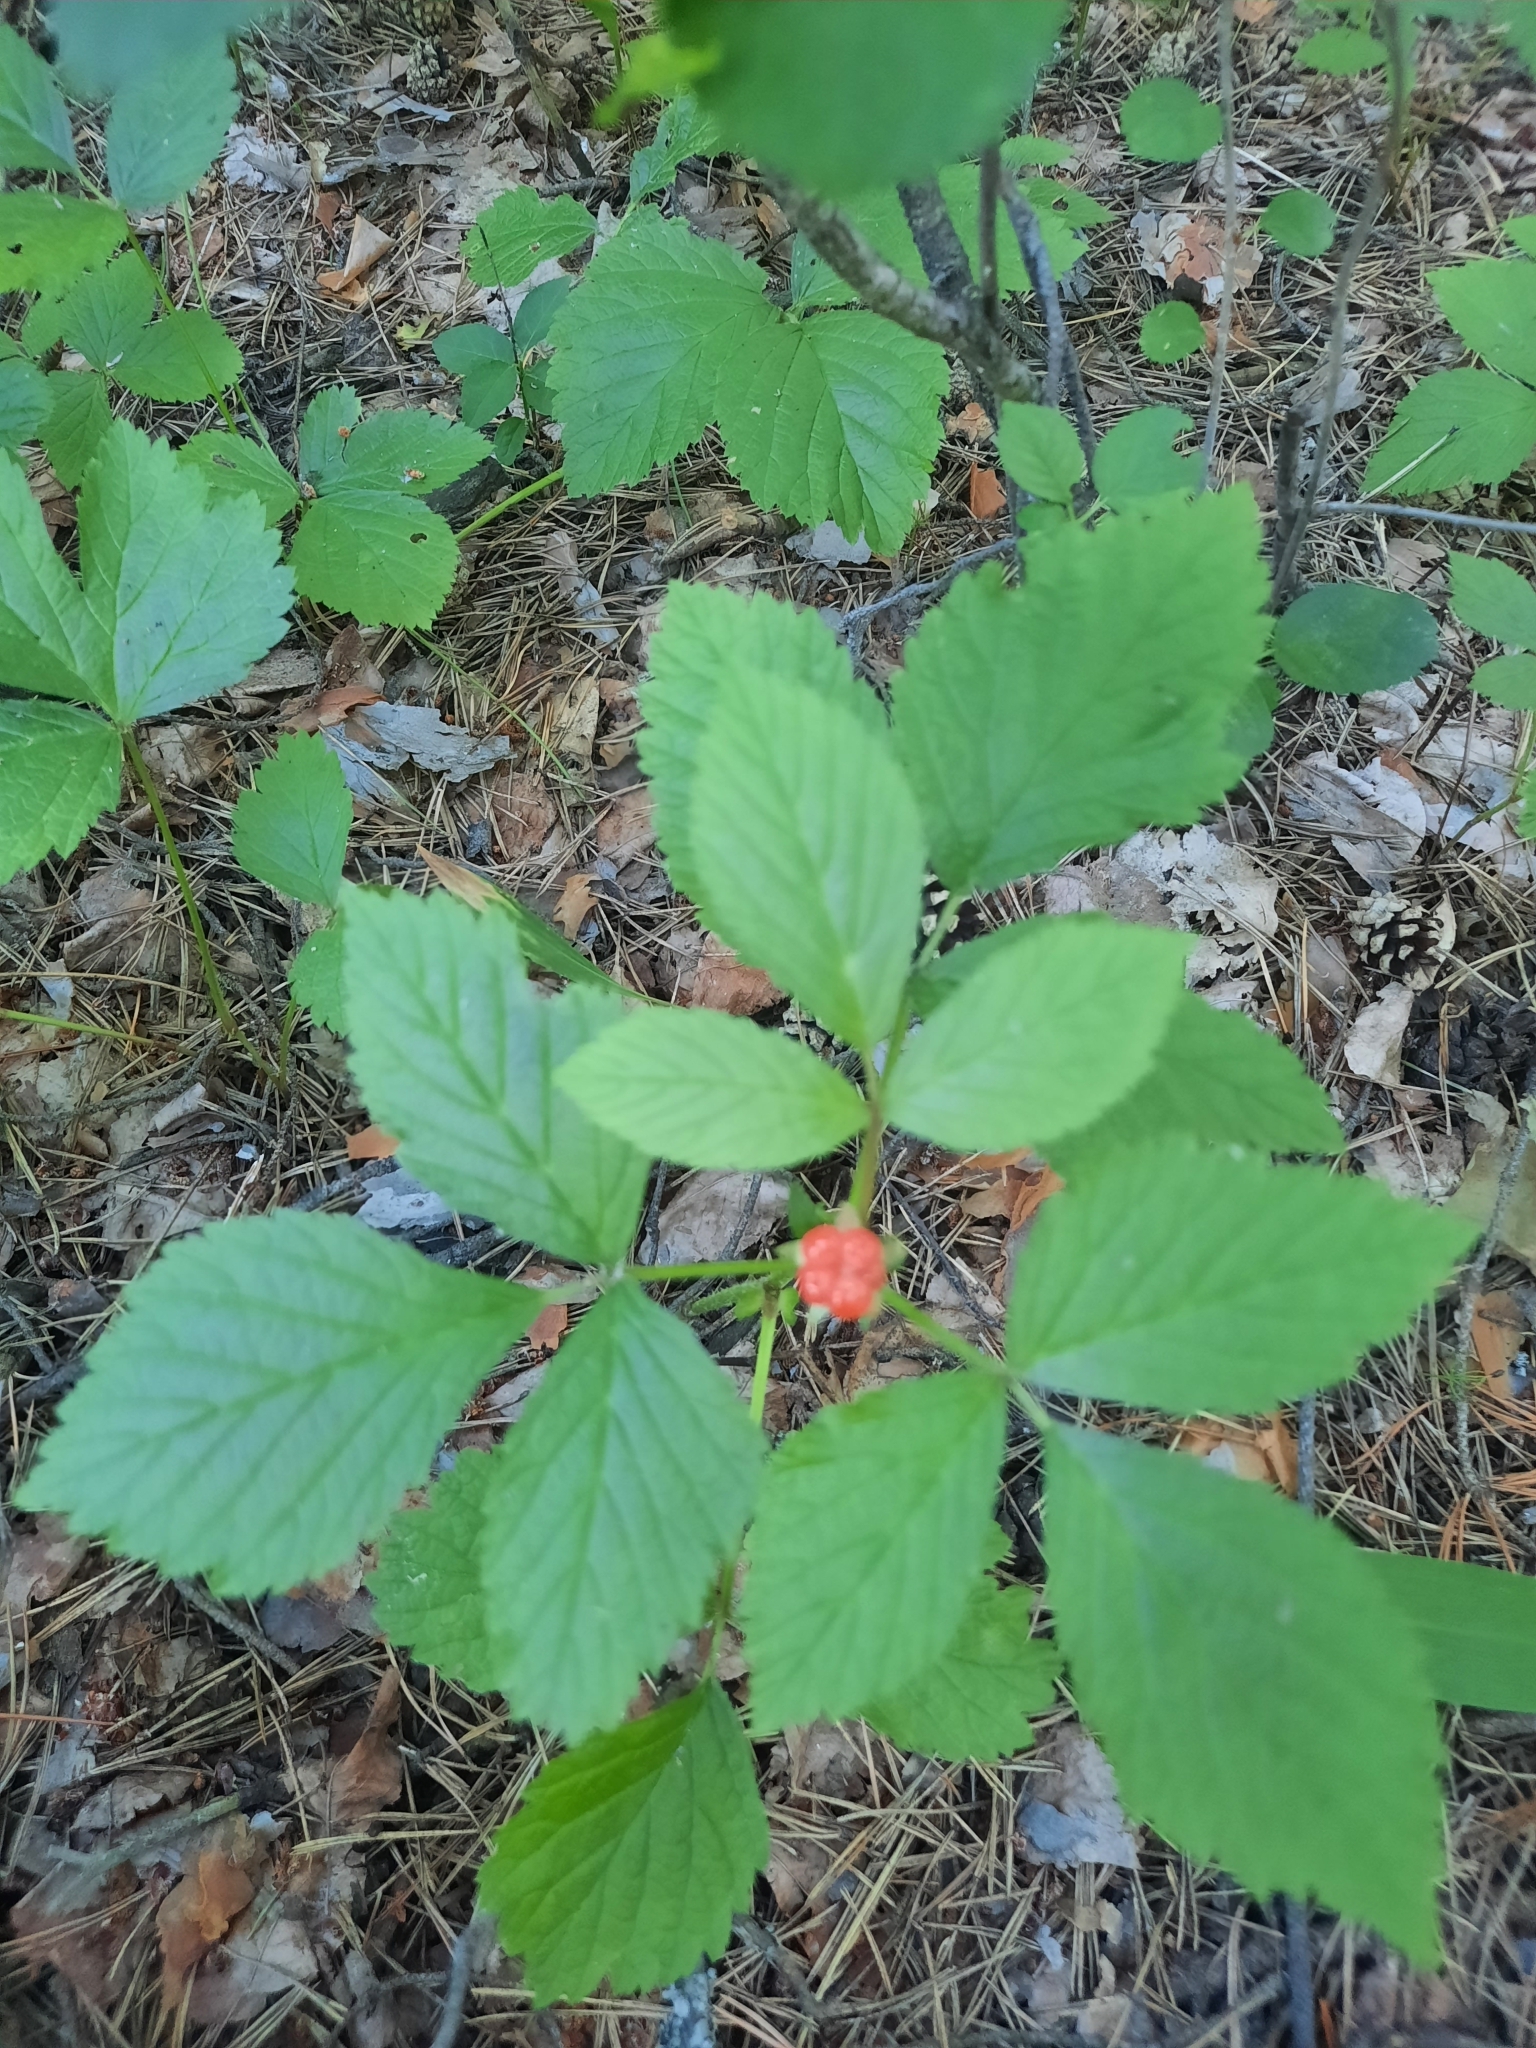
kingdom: Plantae
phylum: Tracheophyta
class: Magnoliopsida
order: Rosales
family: Rosaceae
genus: Rubus
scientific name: Rubus saxatilis
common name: Stone bramble
